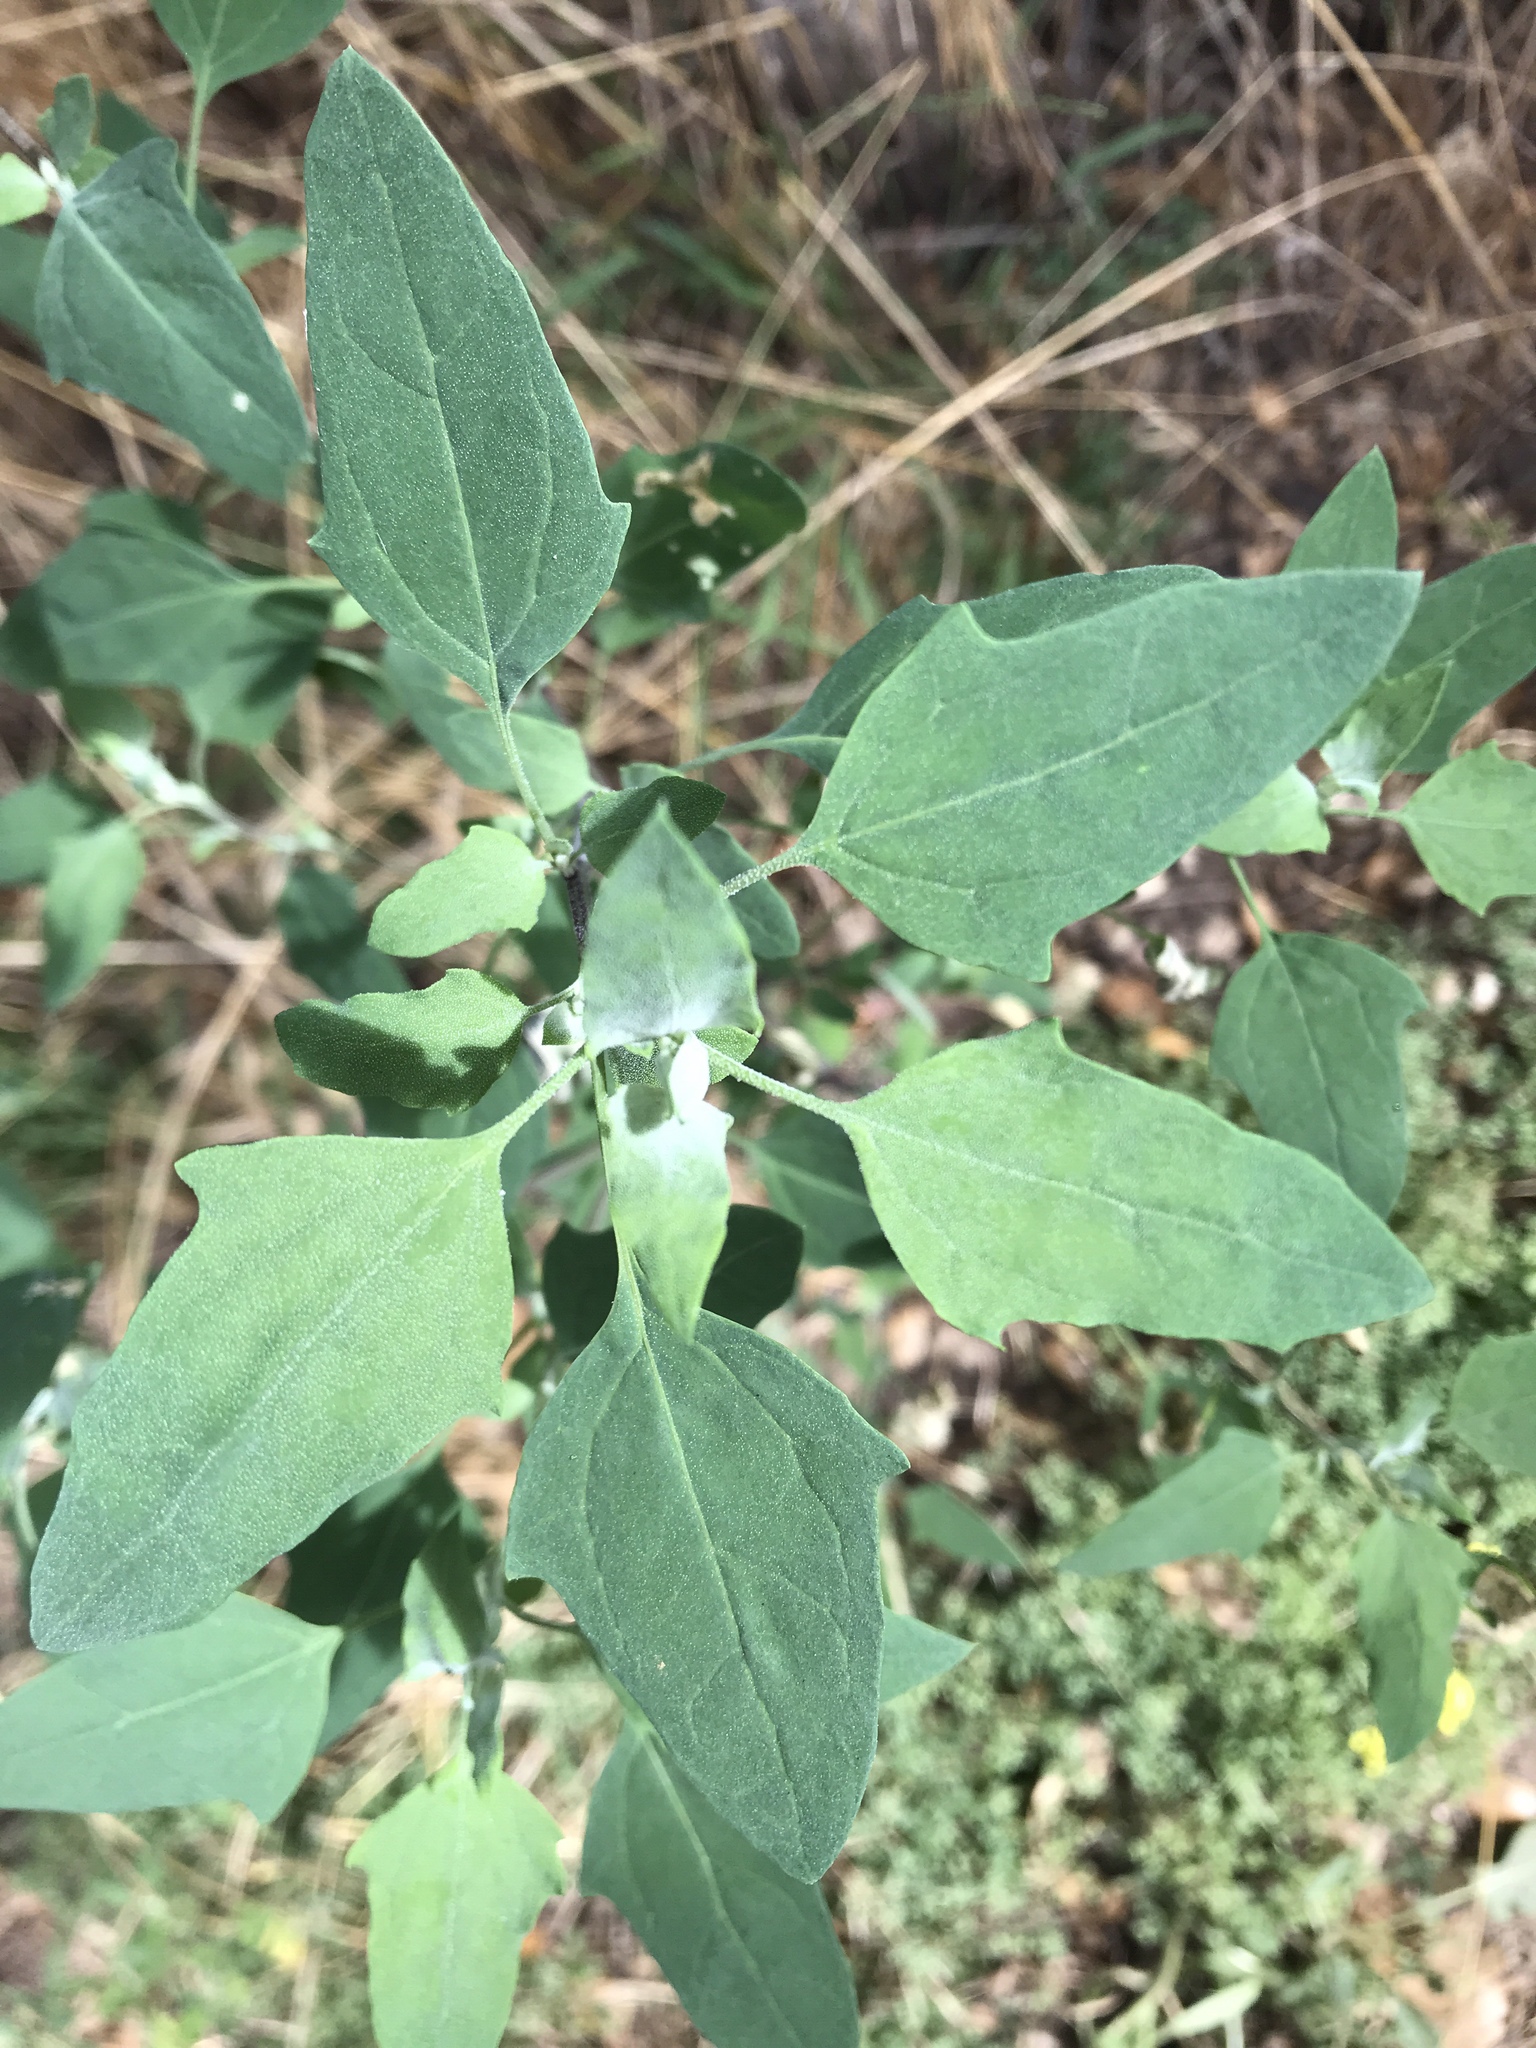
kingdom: Plantae
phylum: Tracheophyta
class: Magnoliopsida
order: Caryophyllales
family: Amaranthaceae
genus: Chenopodium
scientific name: Chenopodium album
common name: Fat-hen
